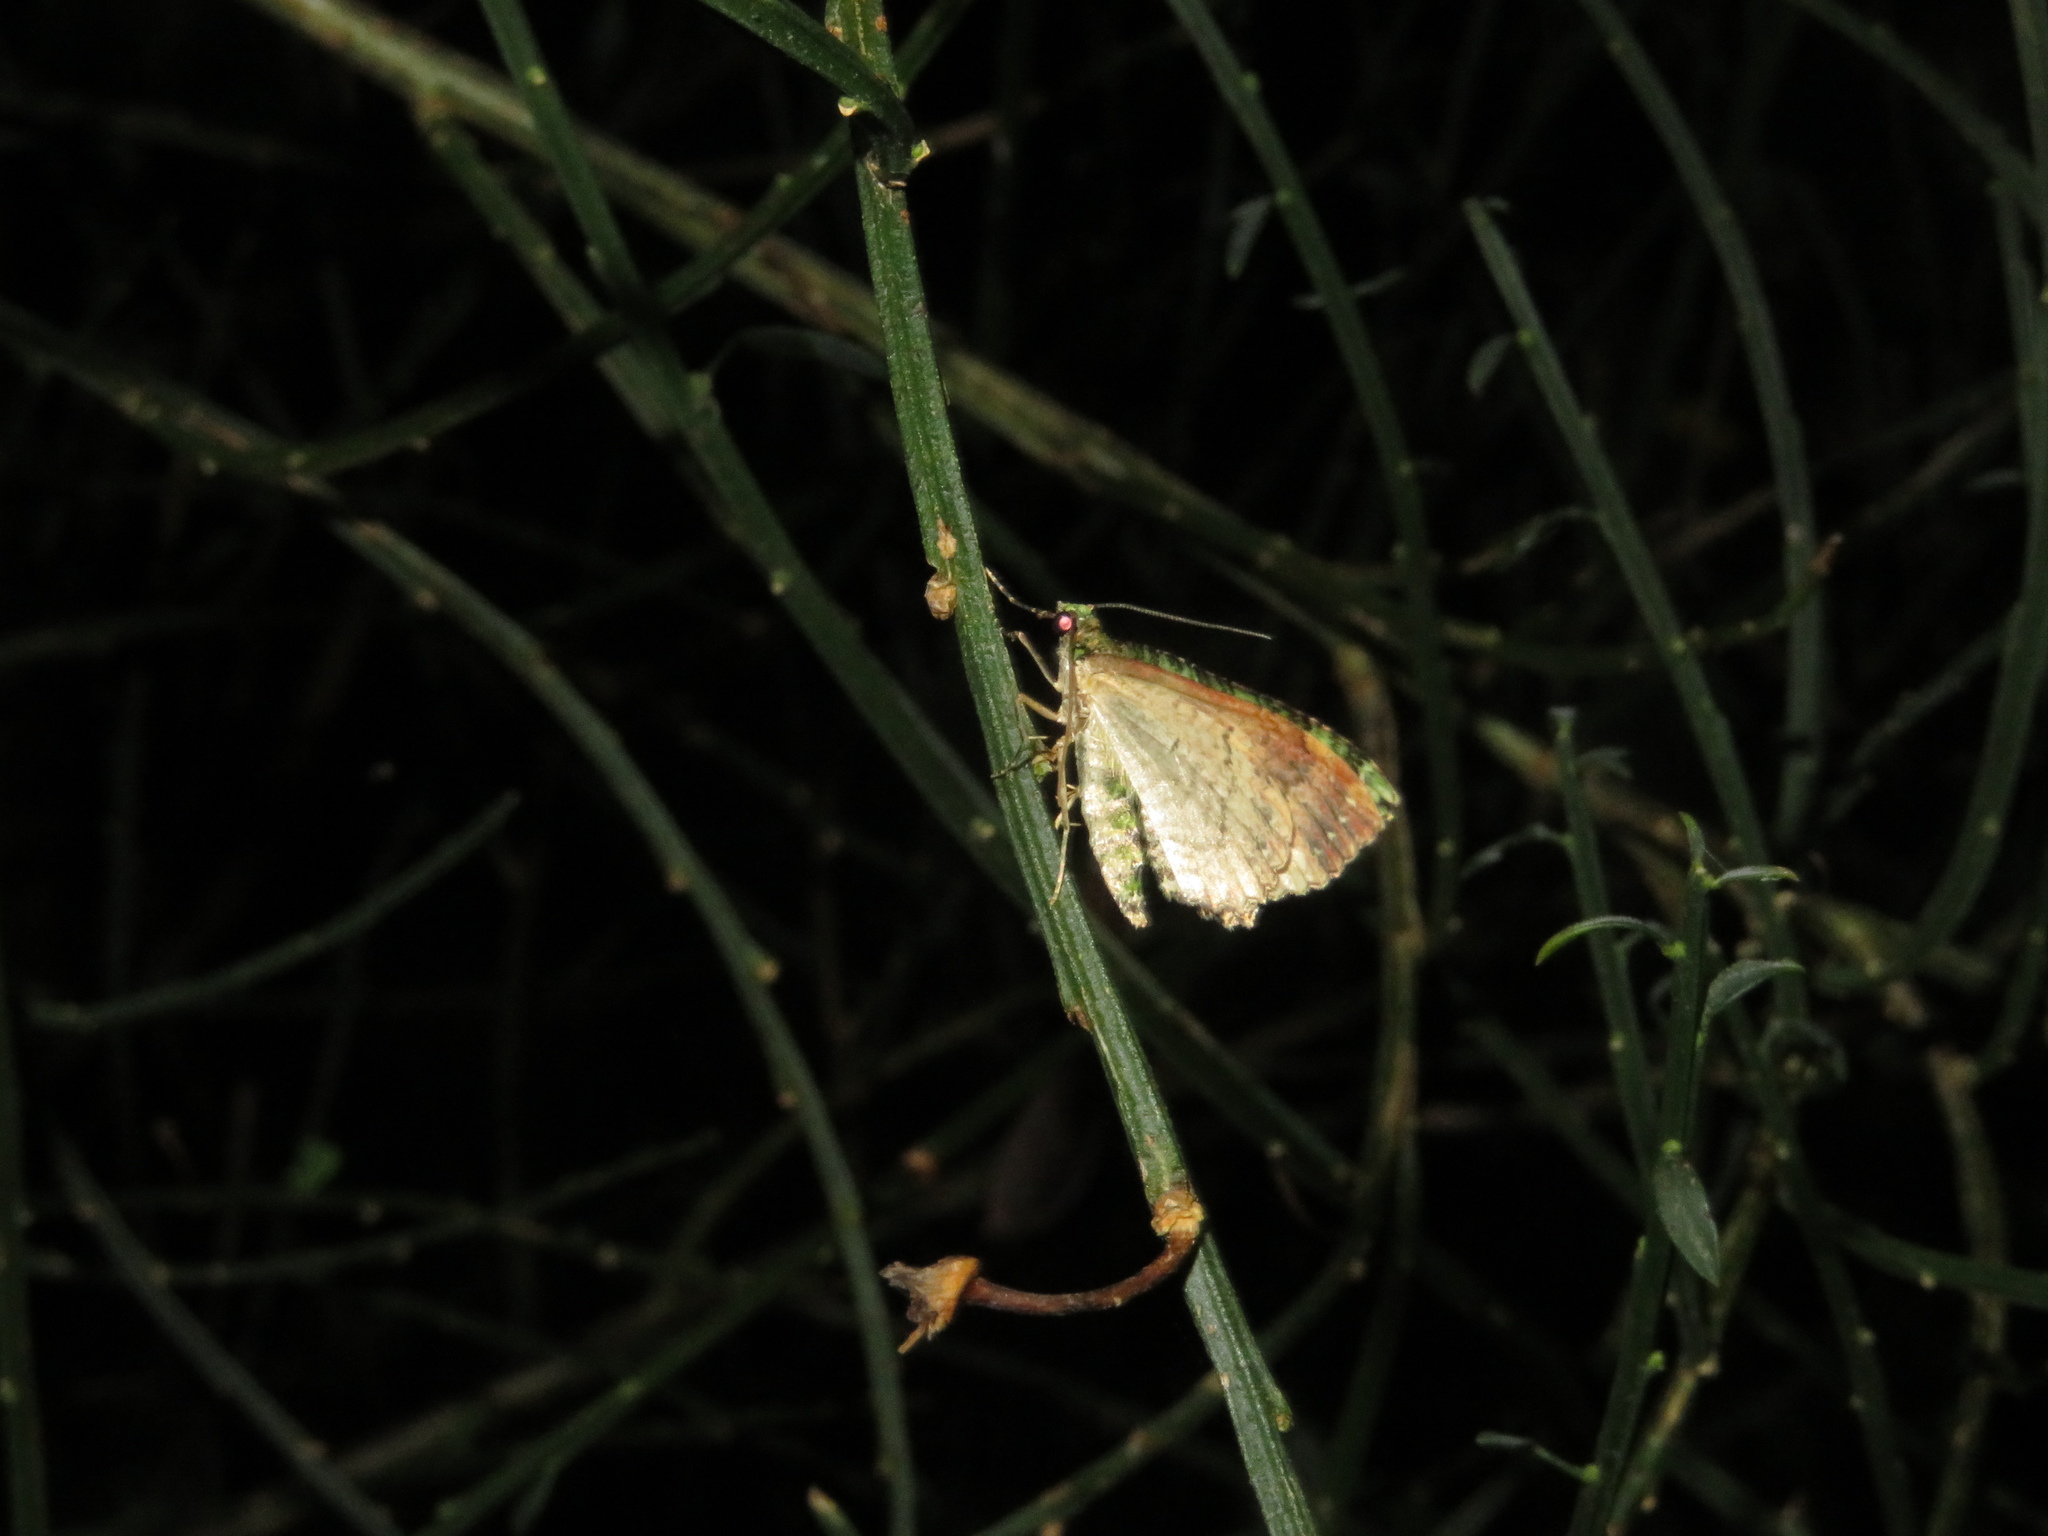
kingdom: Animalia
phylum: Arthropoda
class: Insecta
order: Lepidoptera
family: Geometridae
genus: Austrocidaria
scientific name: Austrocidaria similata
